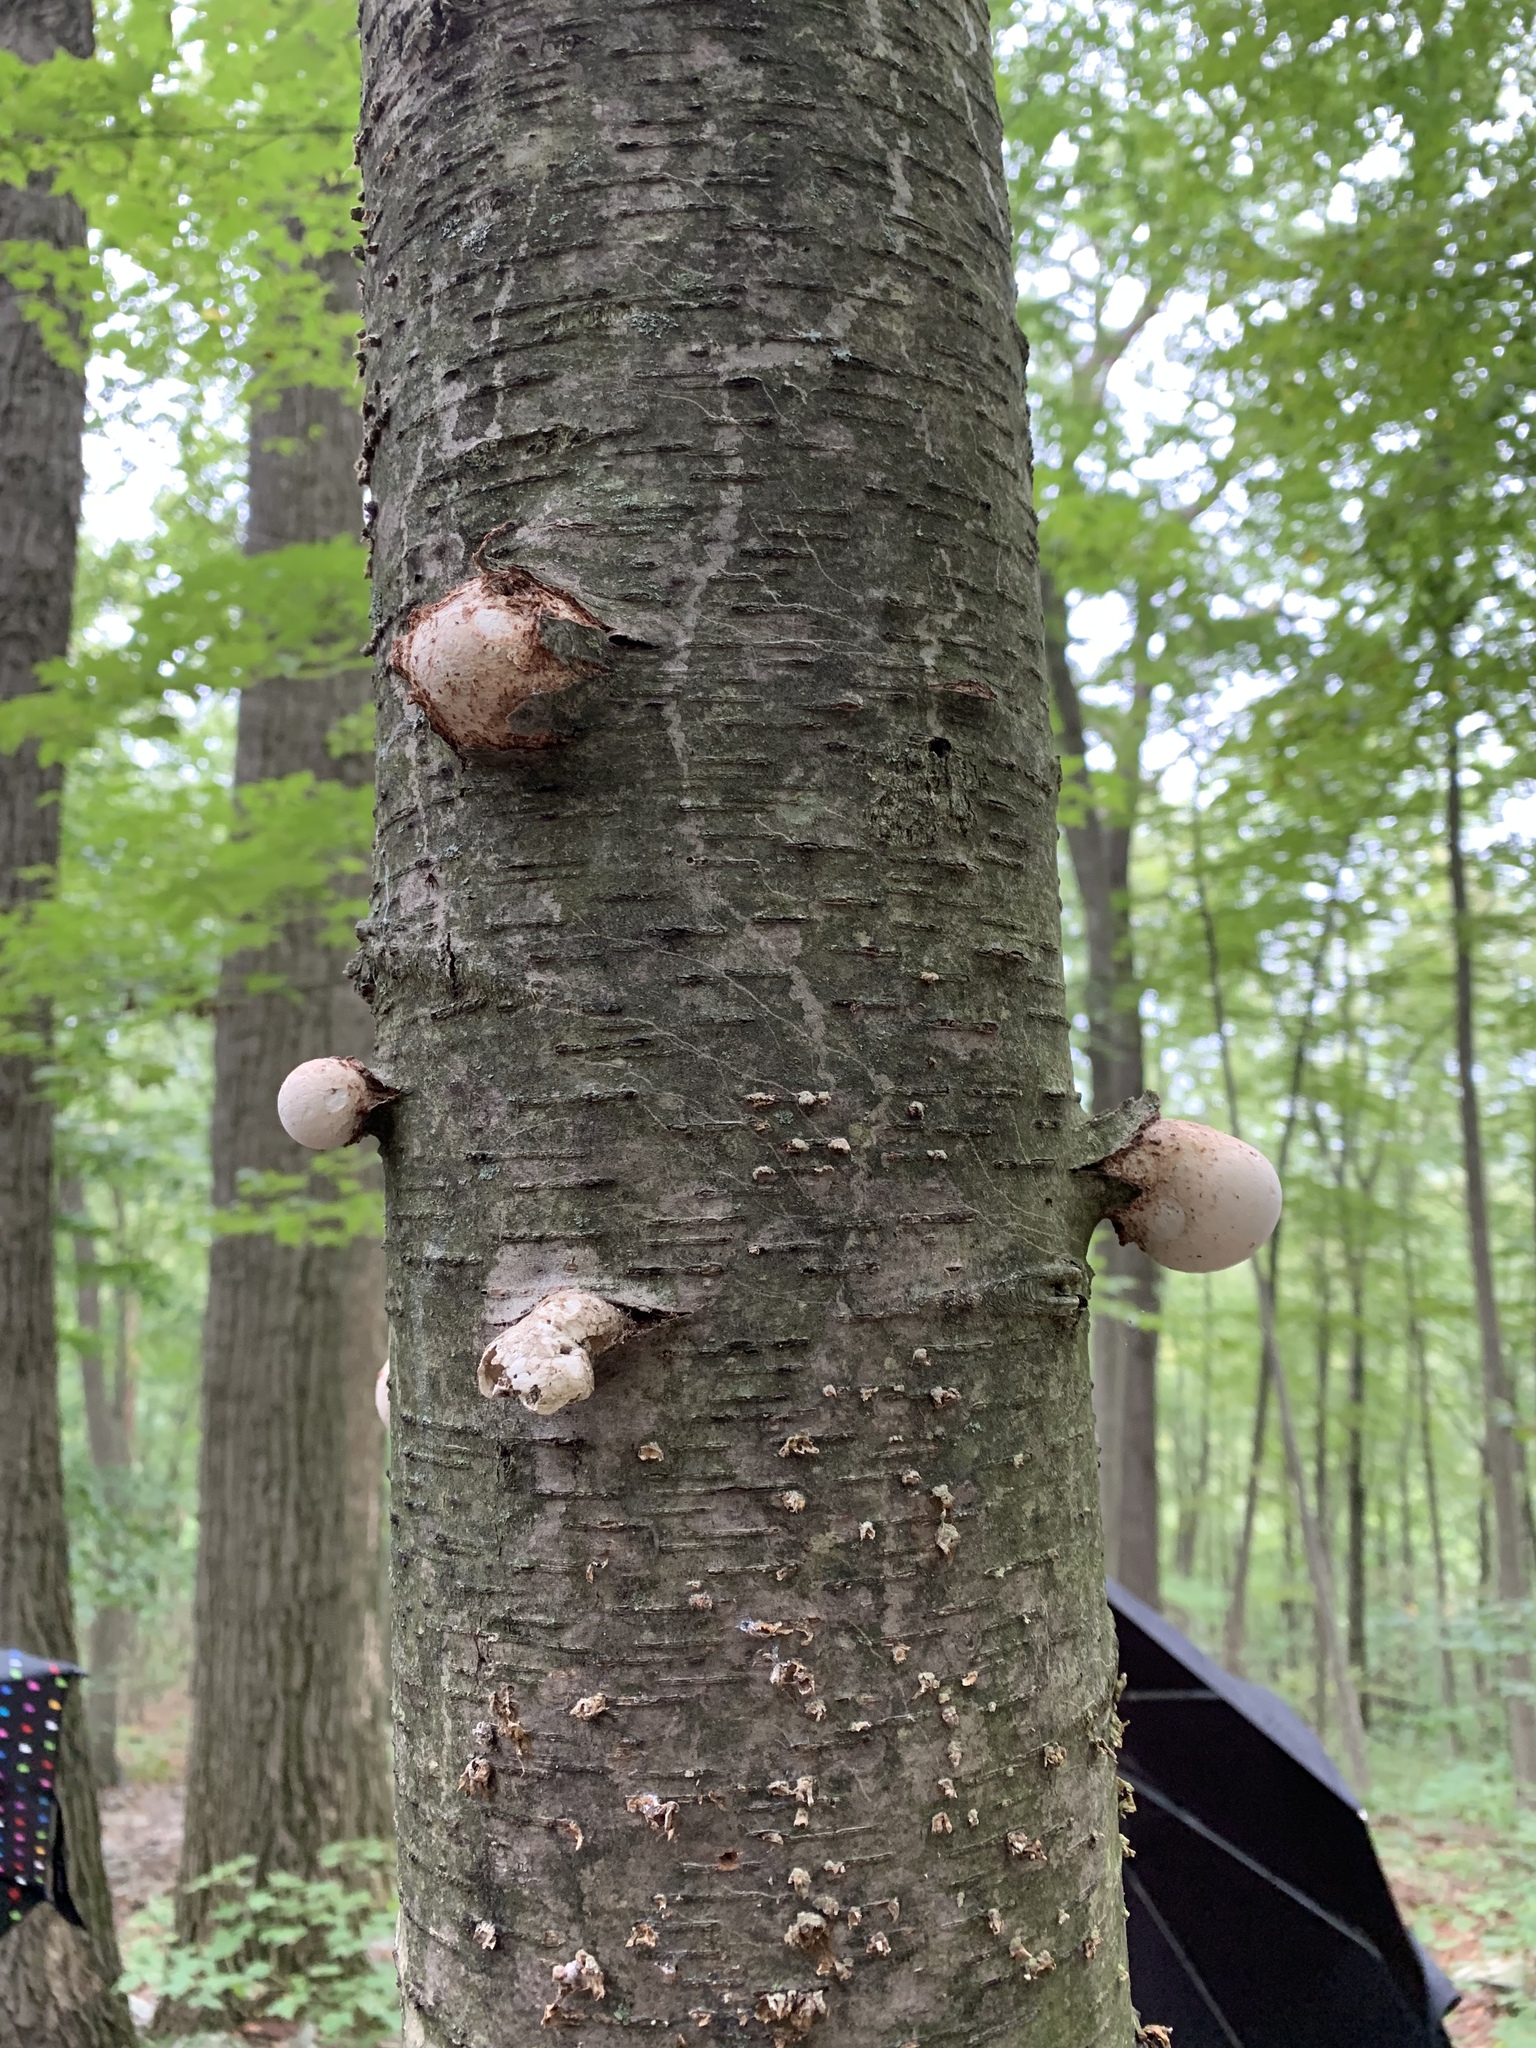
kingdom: Fungi
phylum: Basidiomycota
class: Agaricomycetes
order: Polyporales
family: Fomitopsidaceae
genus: Fomitopsis
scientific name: Fomitopsis betulina
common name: Birch polypore
